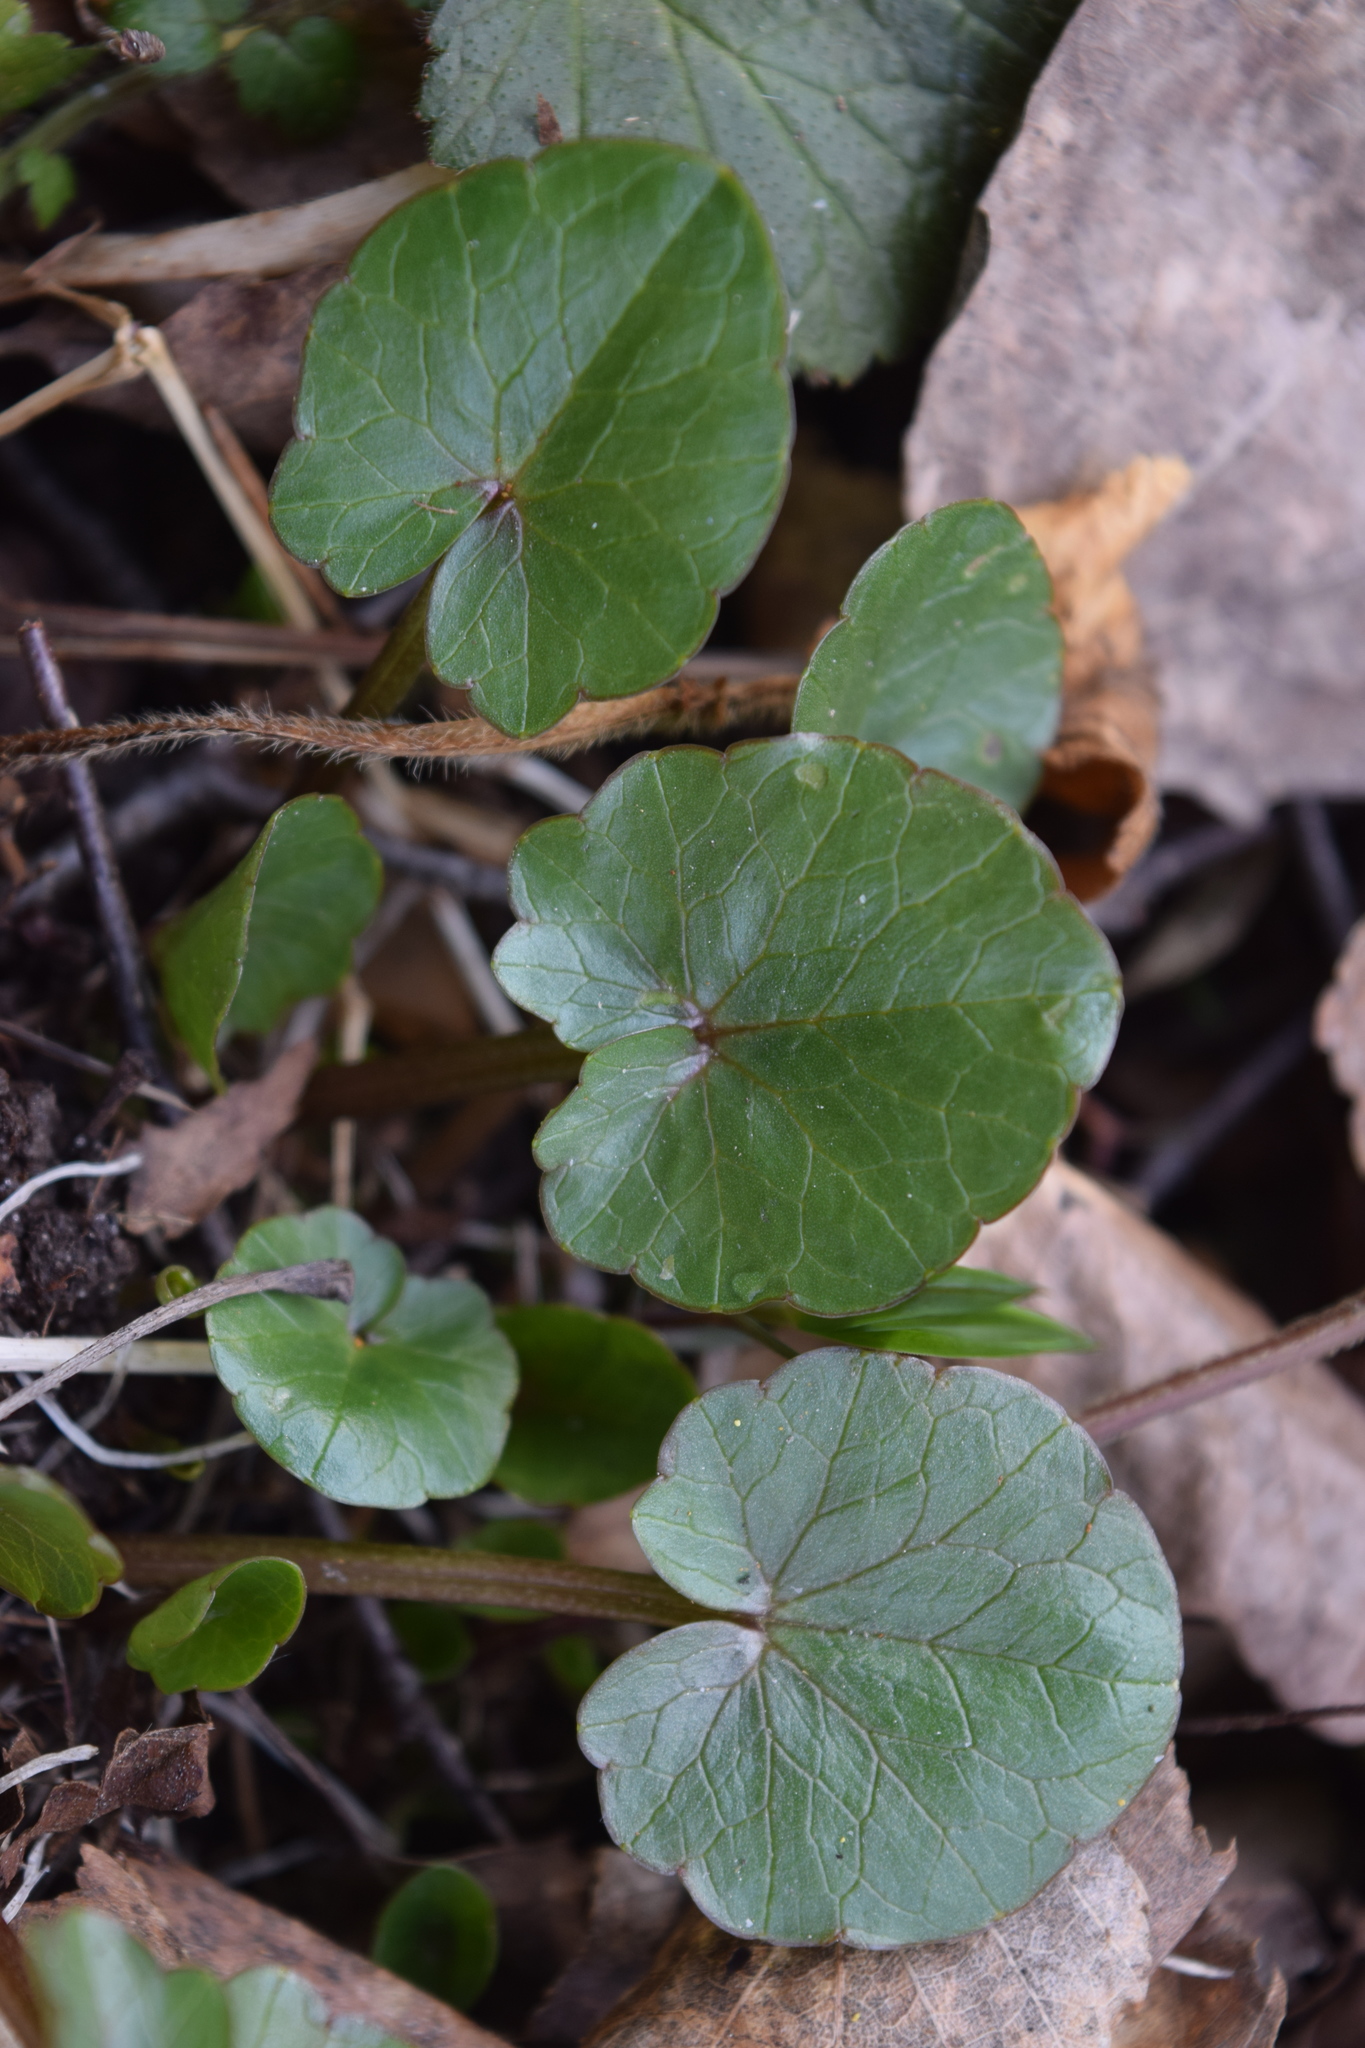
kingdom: Plantae
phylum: Tracheophyta
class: Magnoliopsida
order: Ranunculales
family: Ranunculaceae
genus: Ficaria
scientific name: Ficaria verna
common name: Lesser celandine
